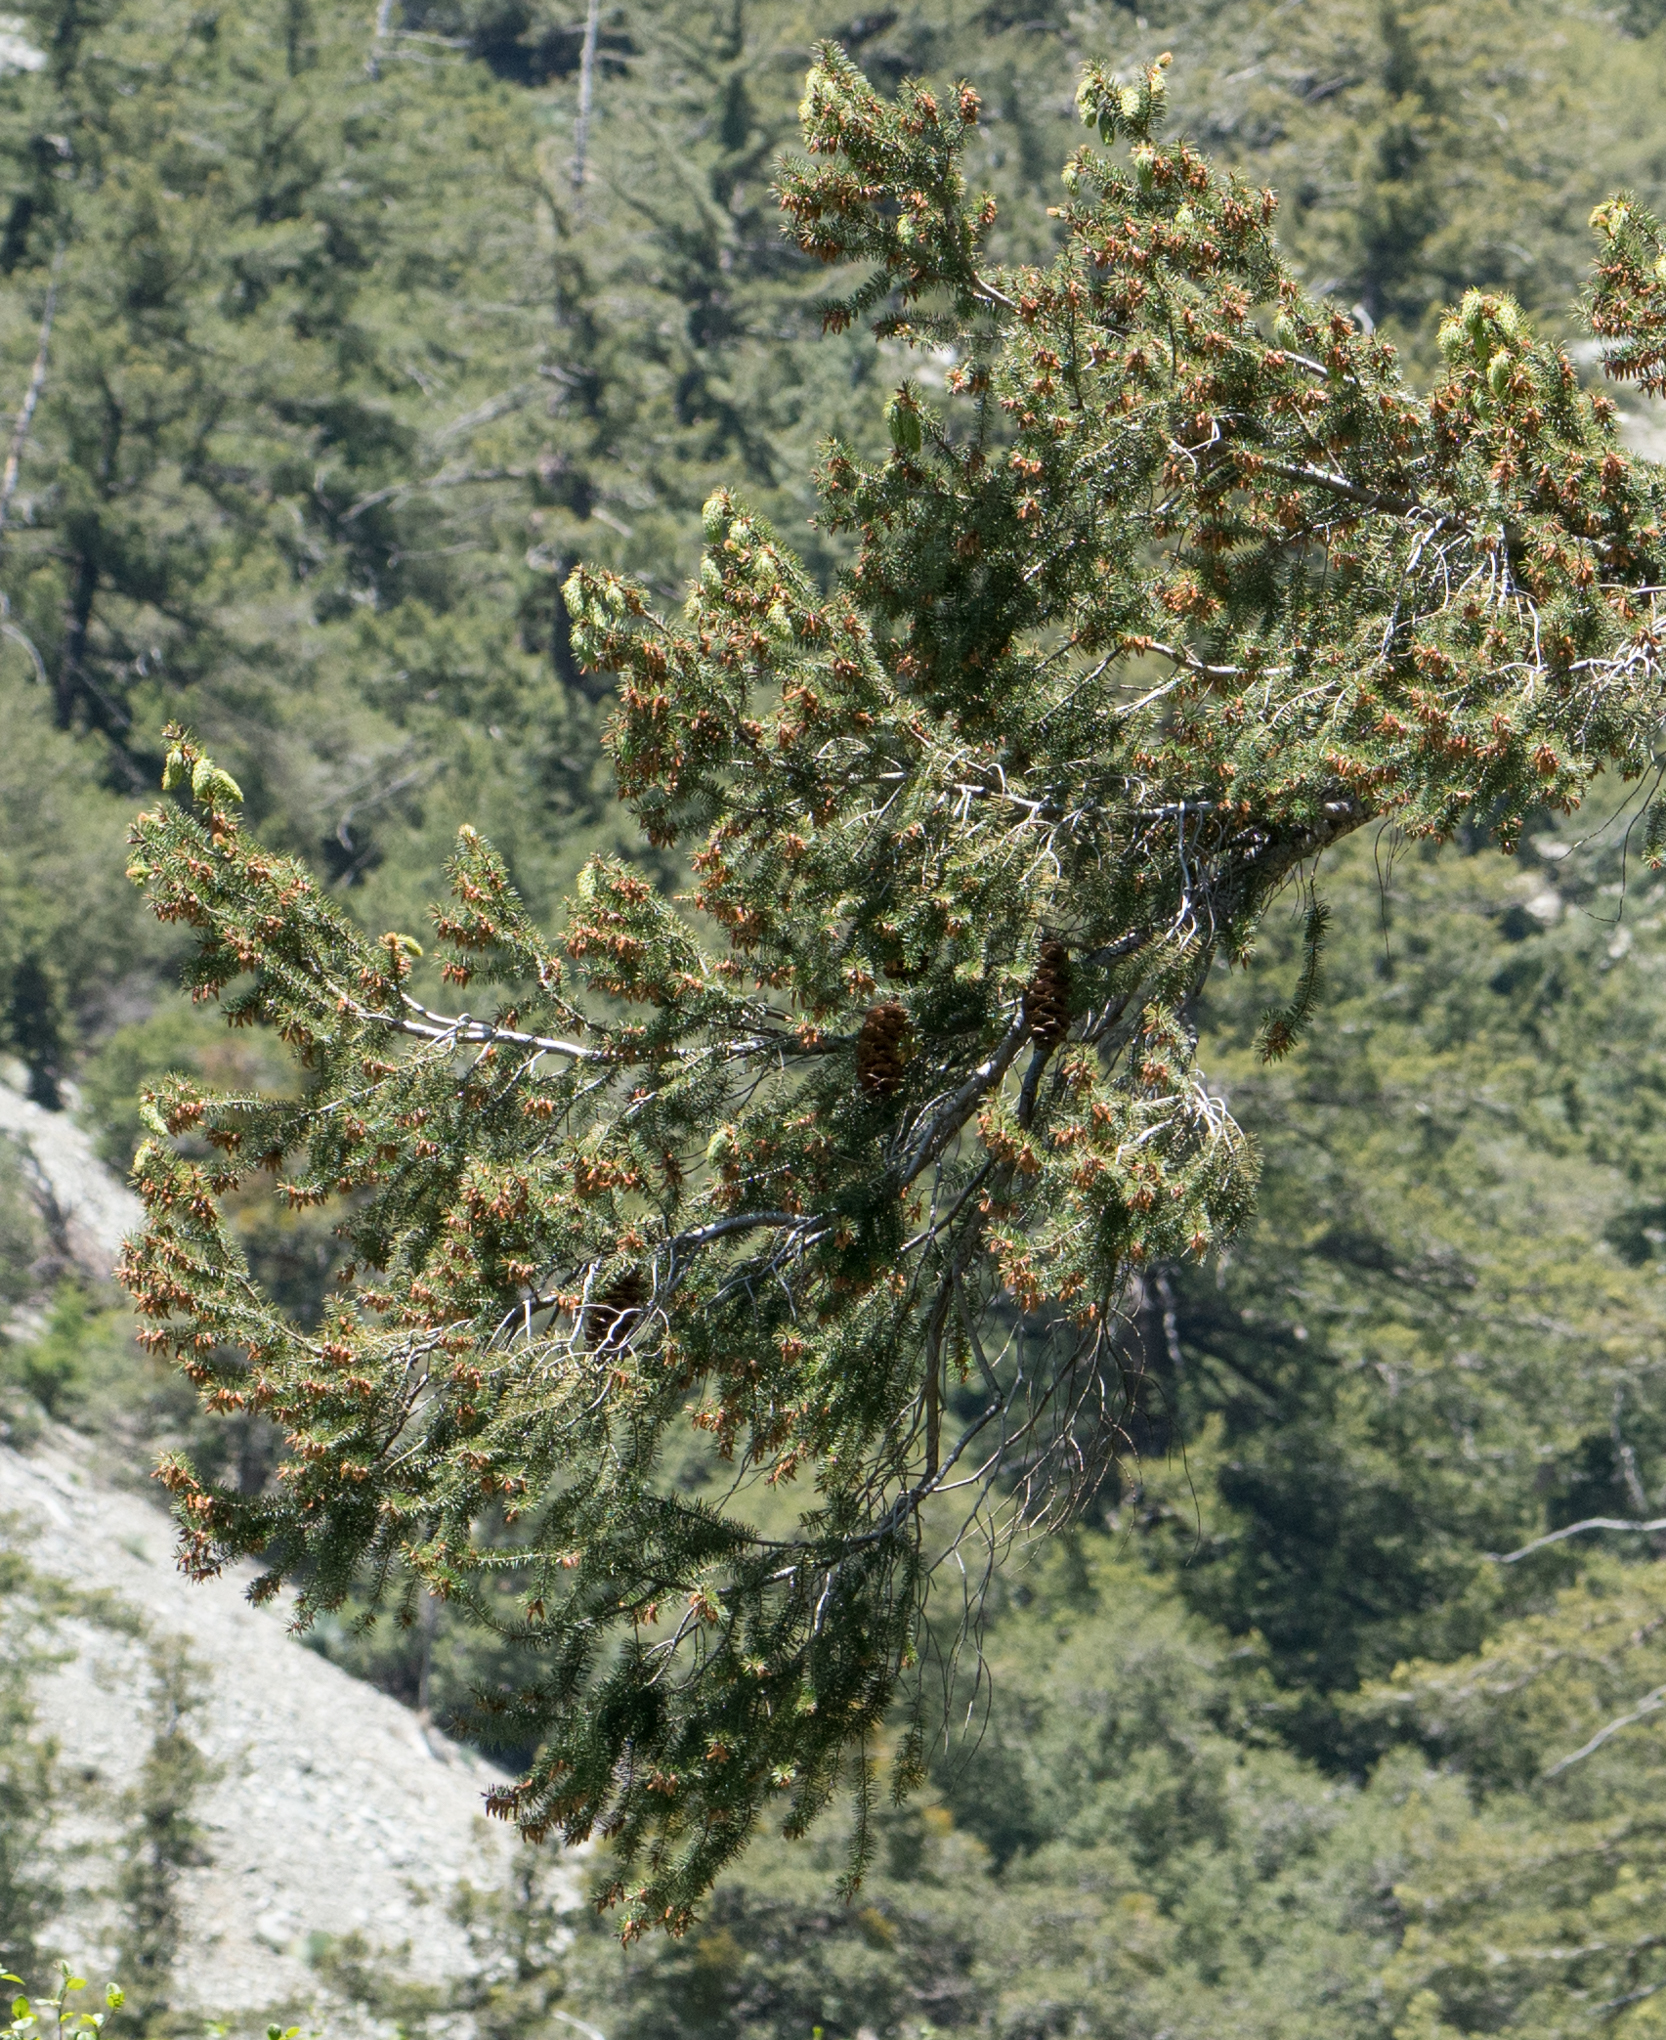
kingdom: Plantae
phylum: Tracheophyta
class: Pinopsida
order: Pinales
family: Pinaceae
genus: Pseudotsuga
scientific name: Pseudotsuga macrocarpa
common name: Big-cone douglas-fir
